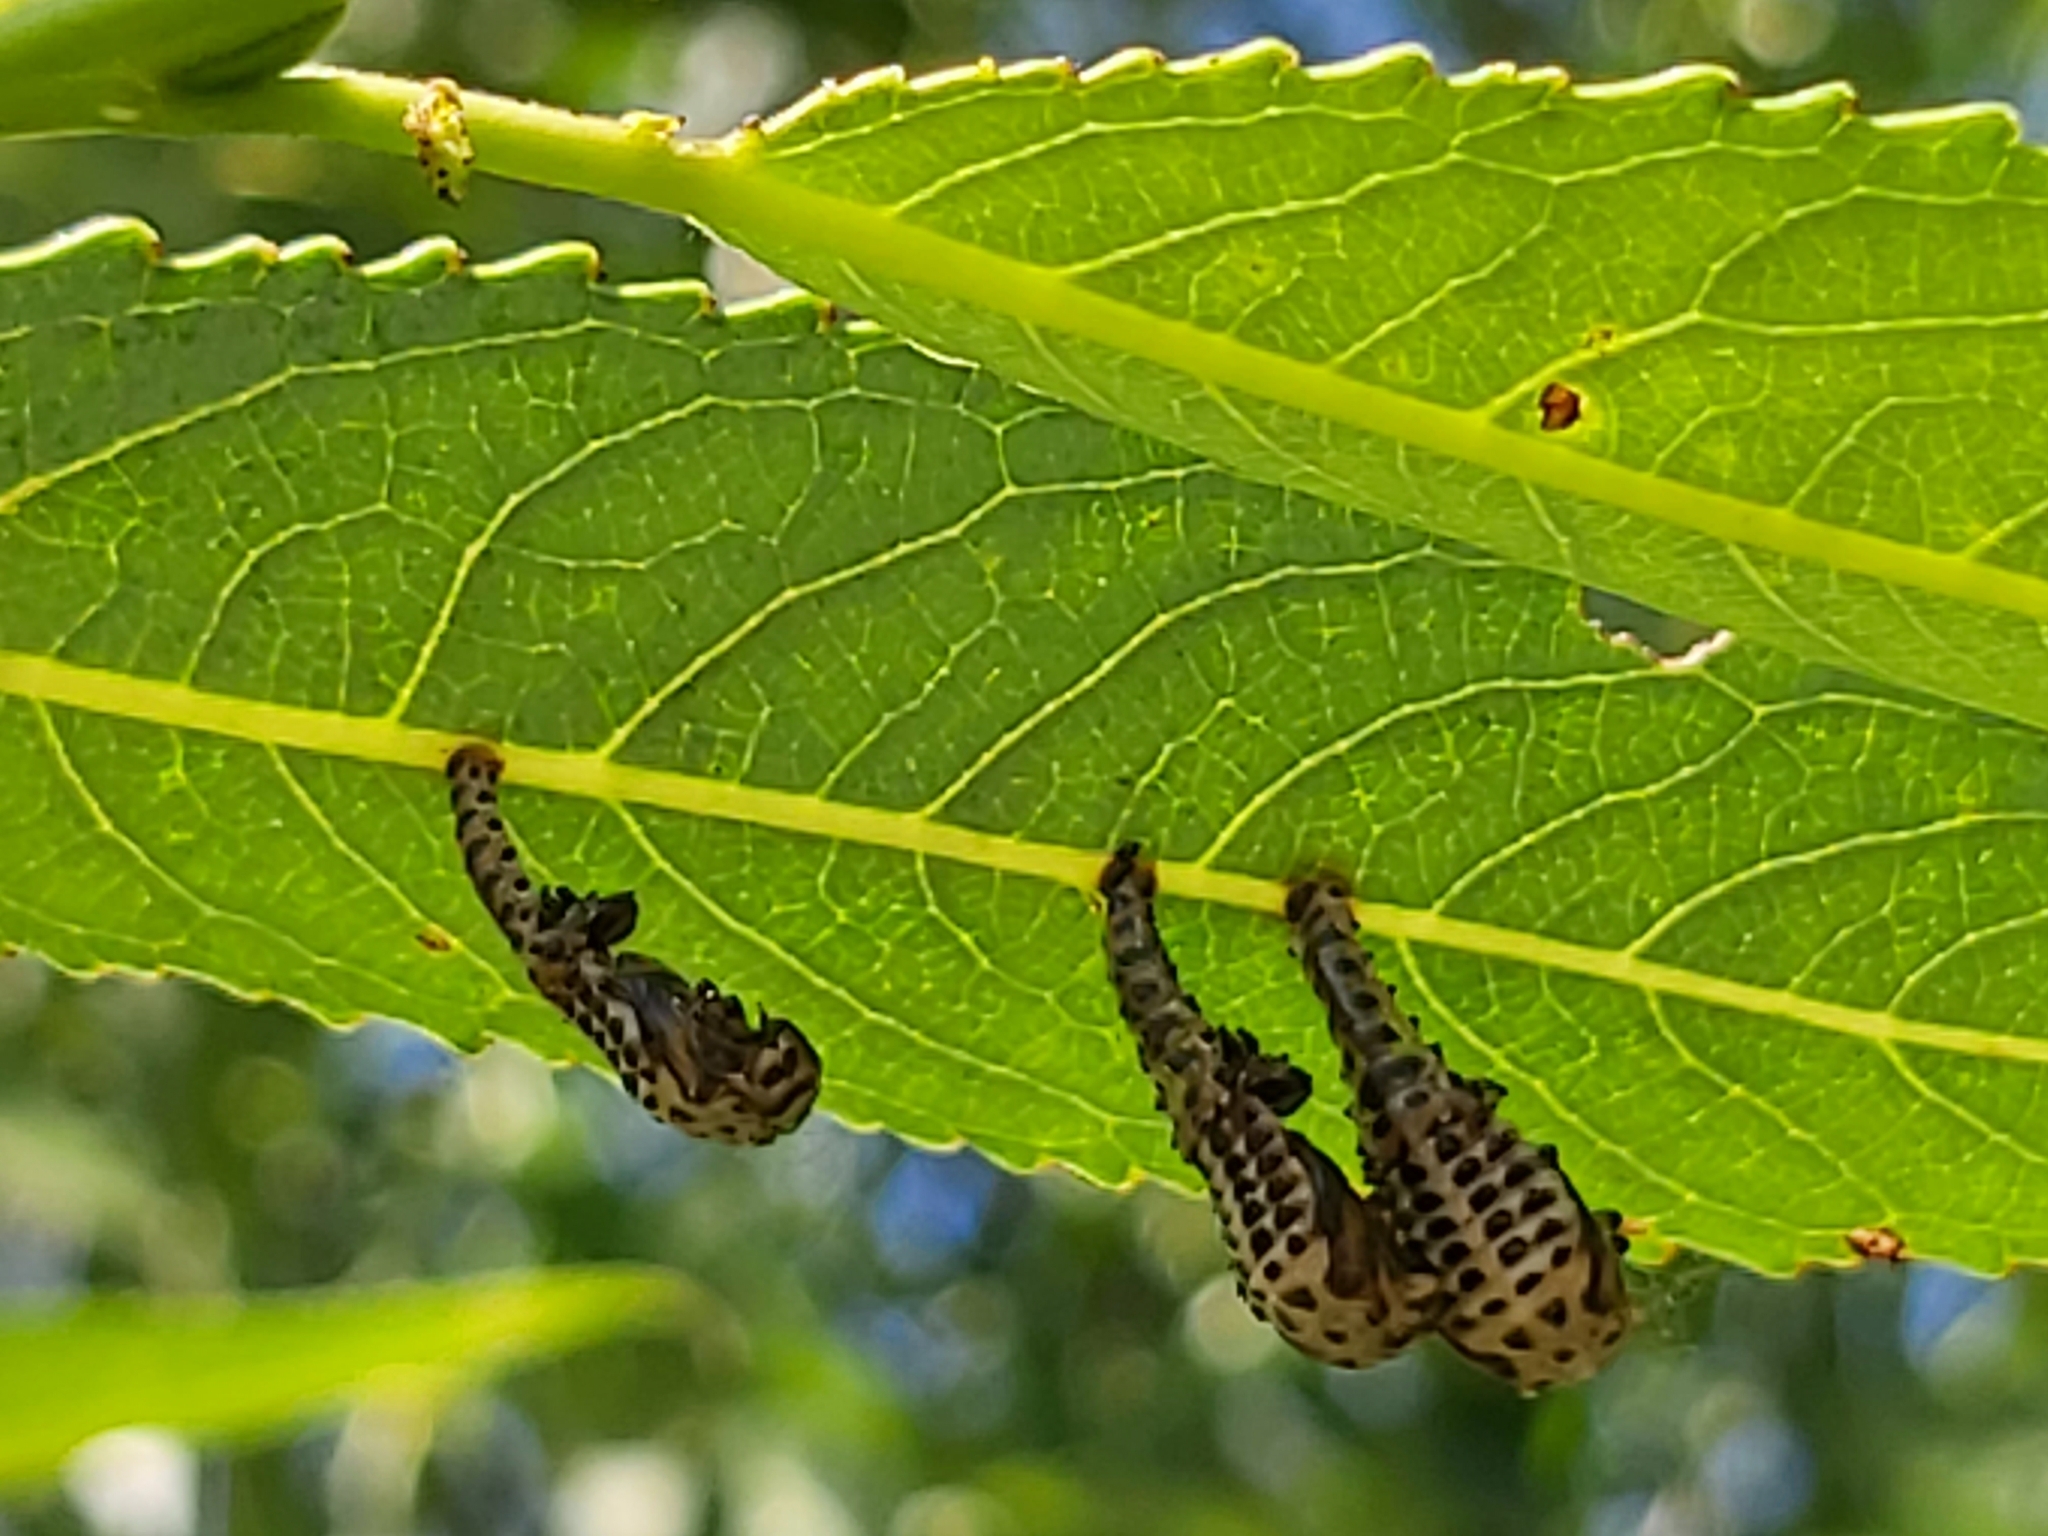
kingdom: Animalia
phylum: Arthropoda
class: Insecta
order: Coleoptera
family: Chrysomelidae
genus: Chrysomela
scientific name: Chrysomela vigintipunctata
